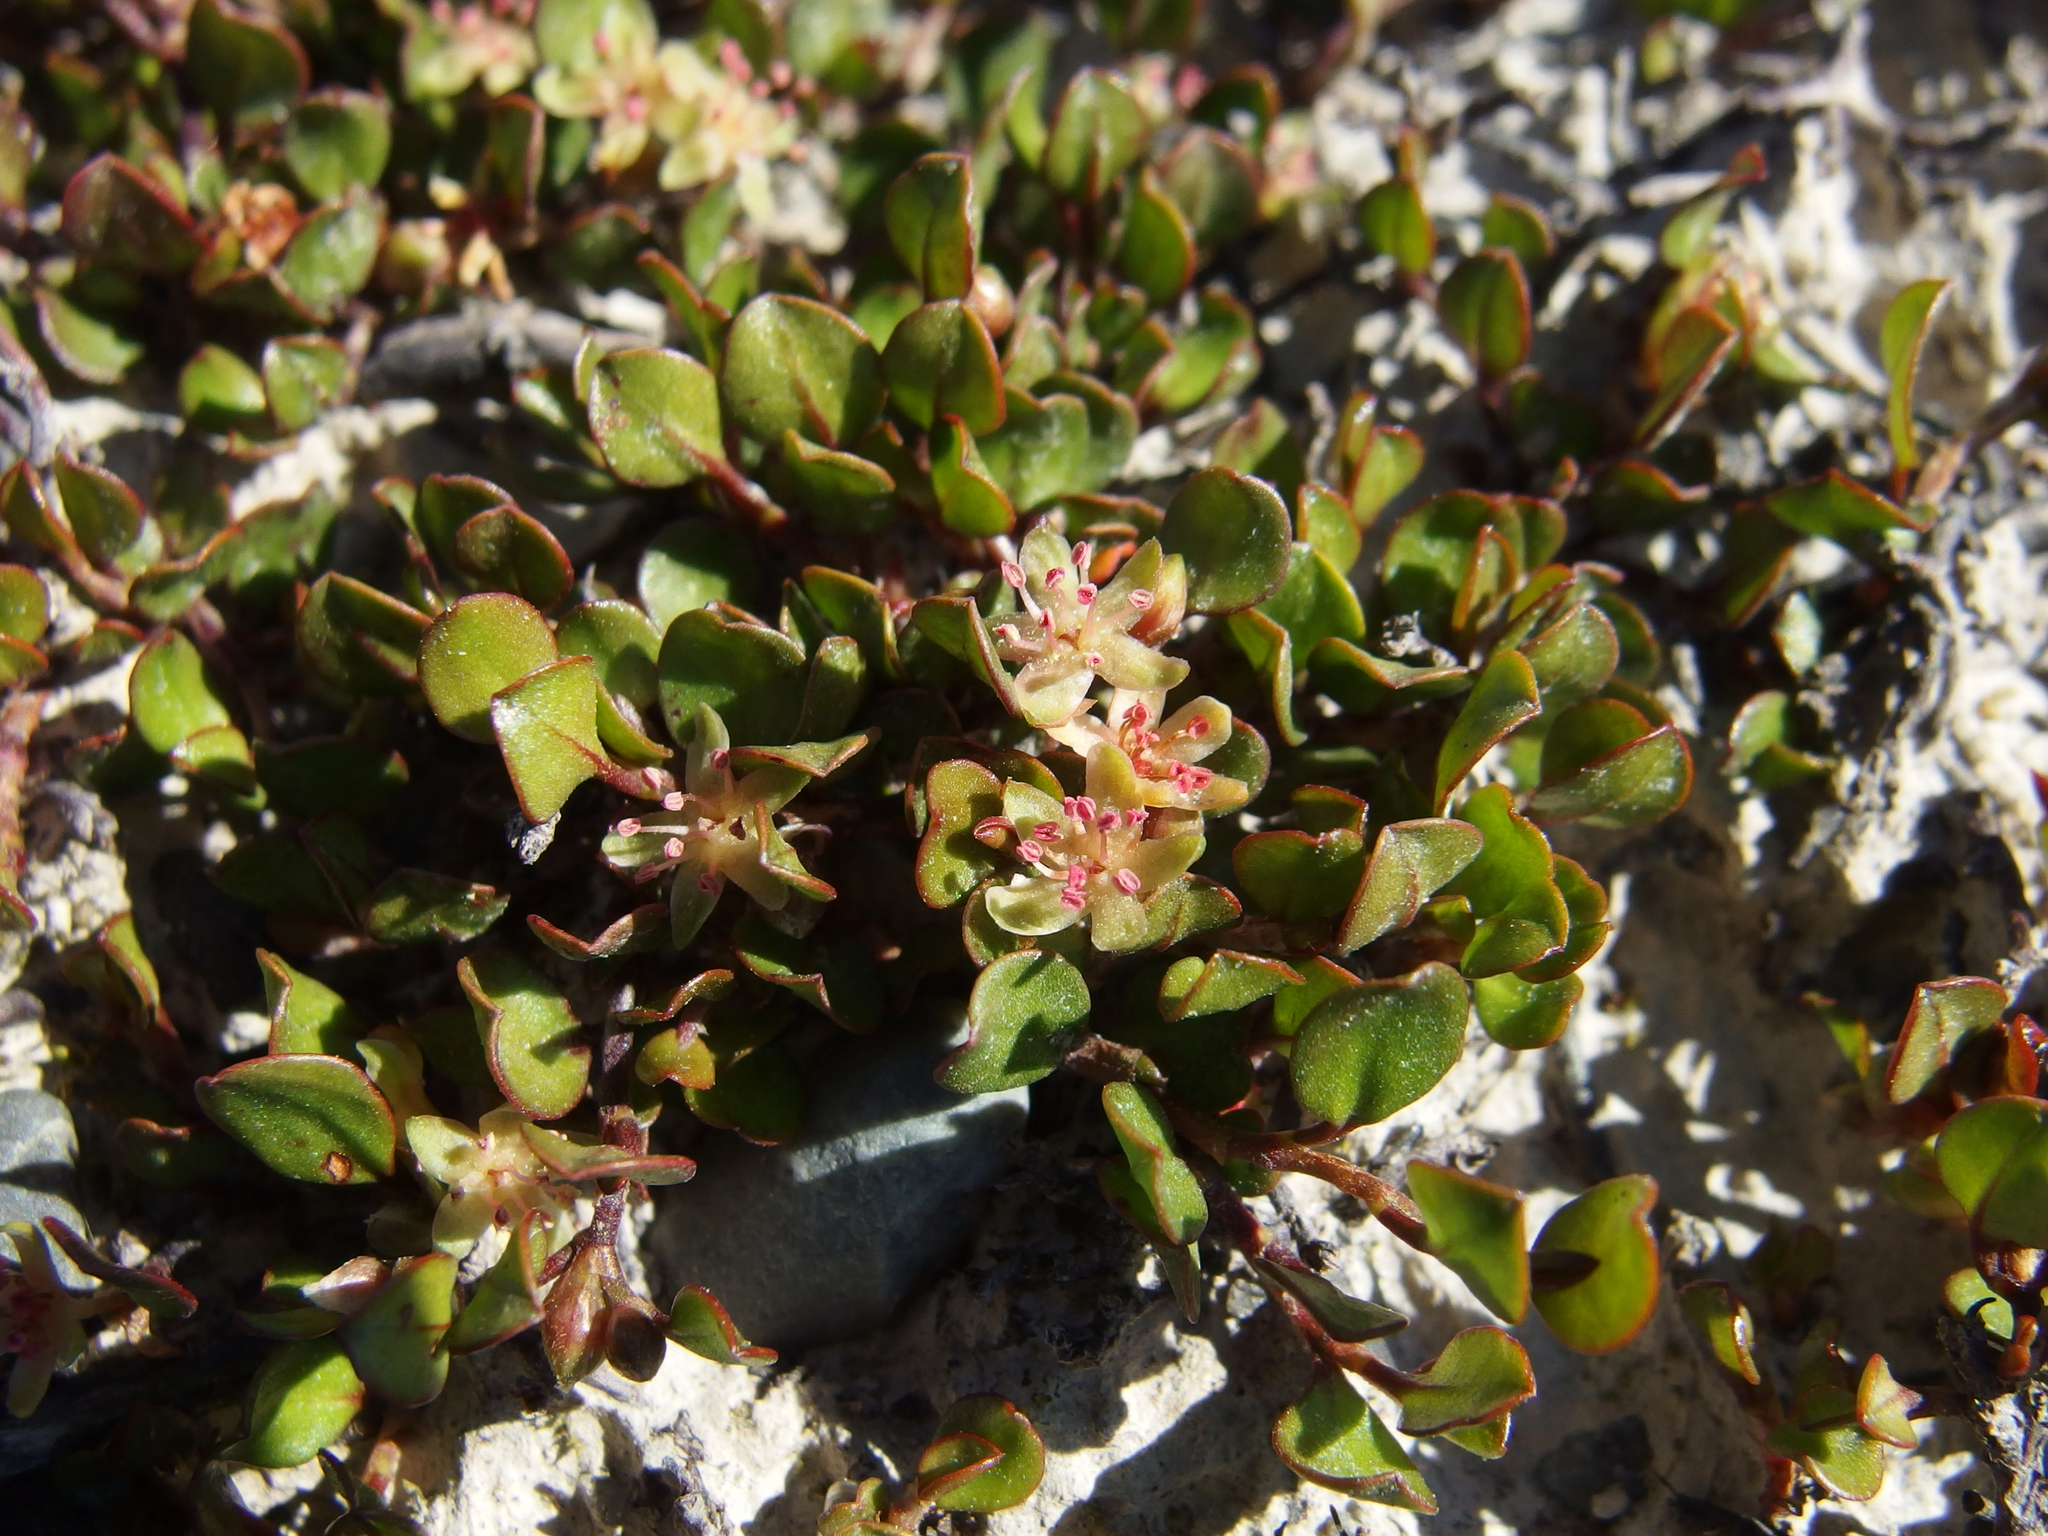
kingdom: Plantae
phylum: Tracheophyta
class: Magnoliopsida
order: Caryophyllales
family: Polygonaceae
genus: Muehlenbeckia
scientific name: Muehlenbeckia axillaris
